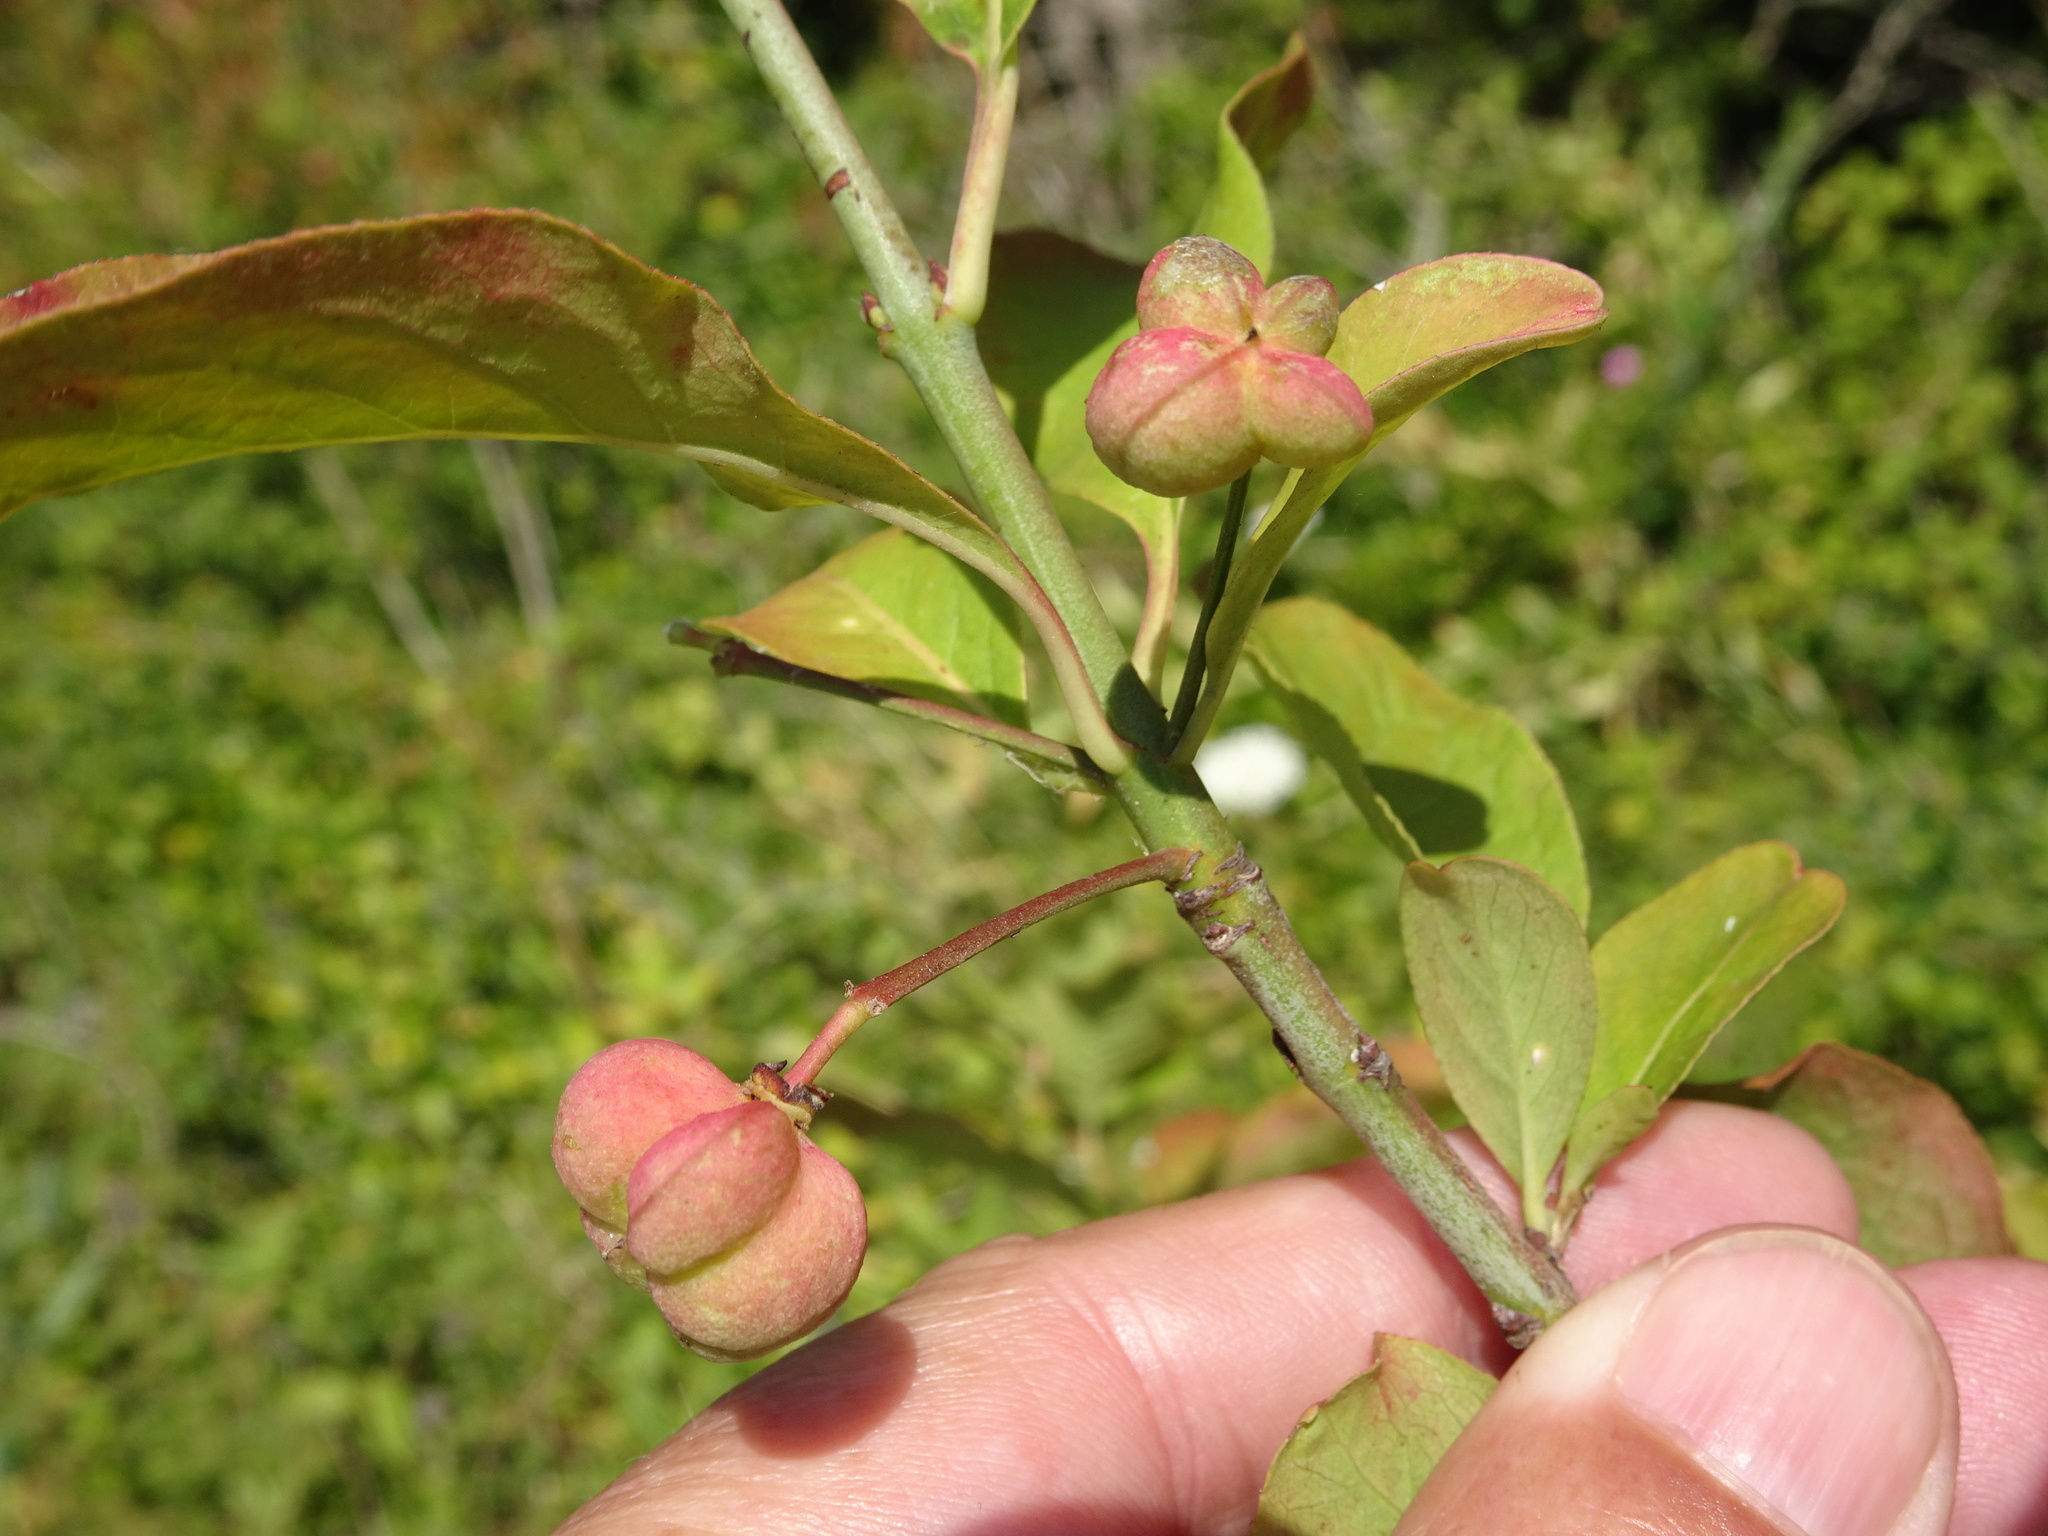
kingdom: Plantae
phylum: Tracheophyta
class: Magnoliopsida
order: Celastrales
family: Celastraceae
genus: Euonymus
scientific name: Euonymus europaeus
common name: Spindle
